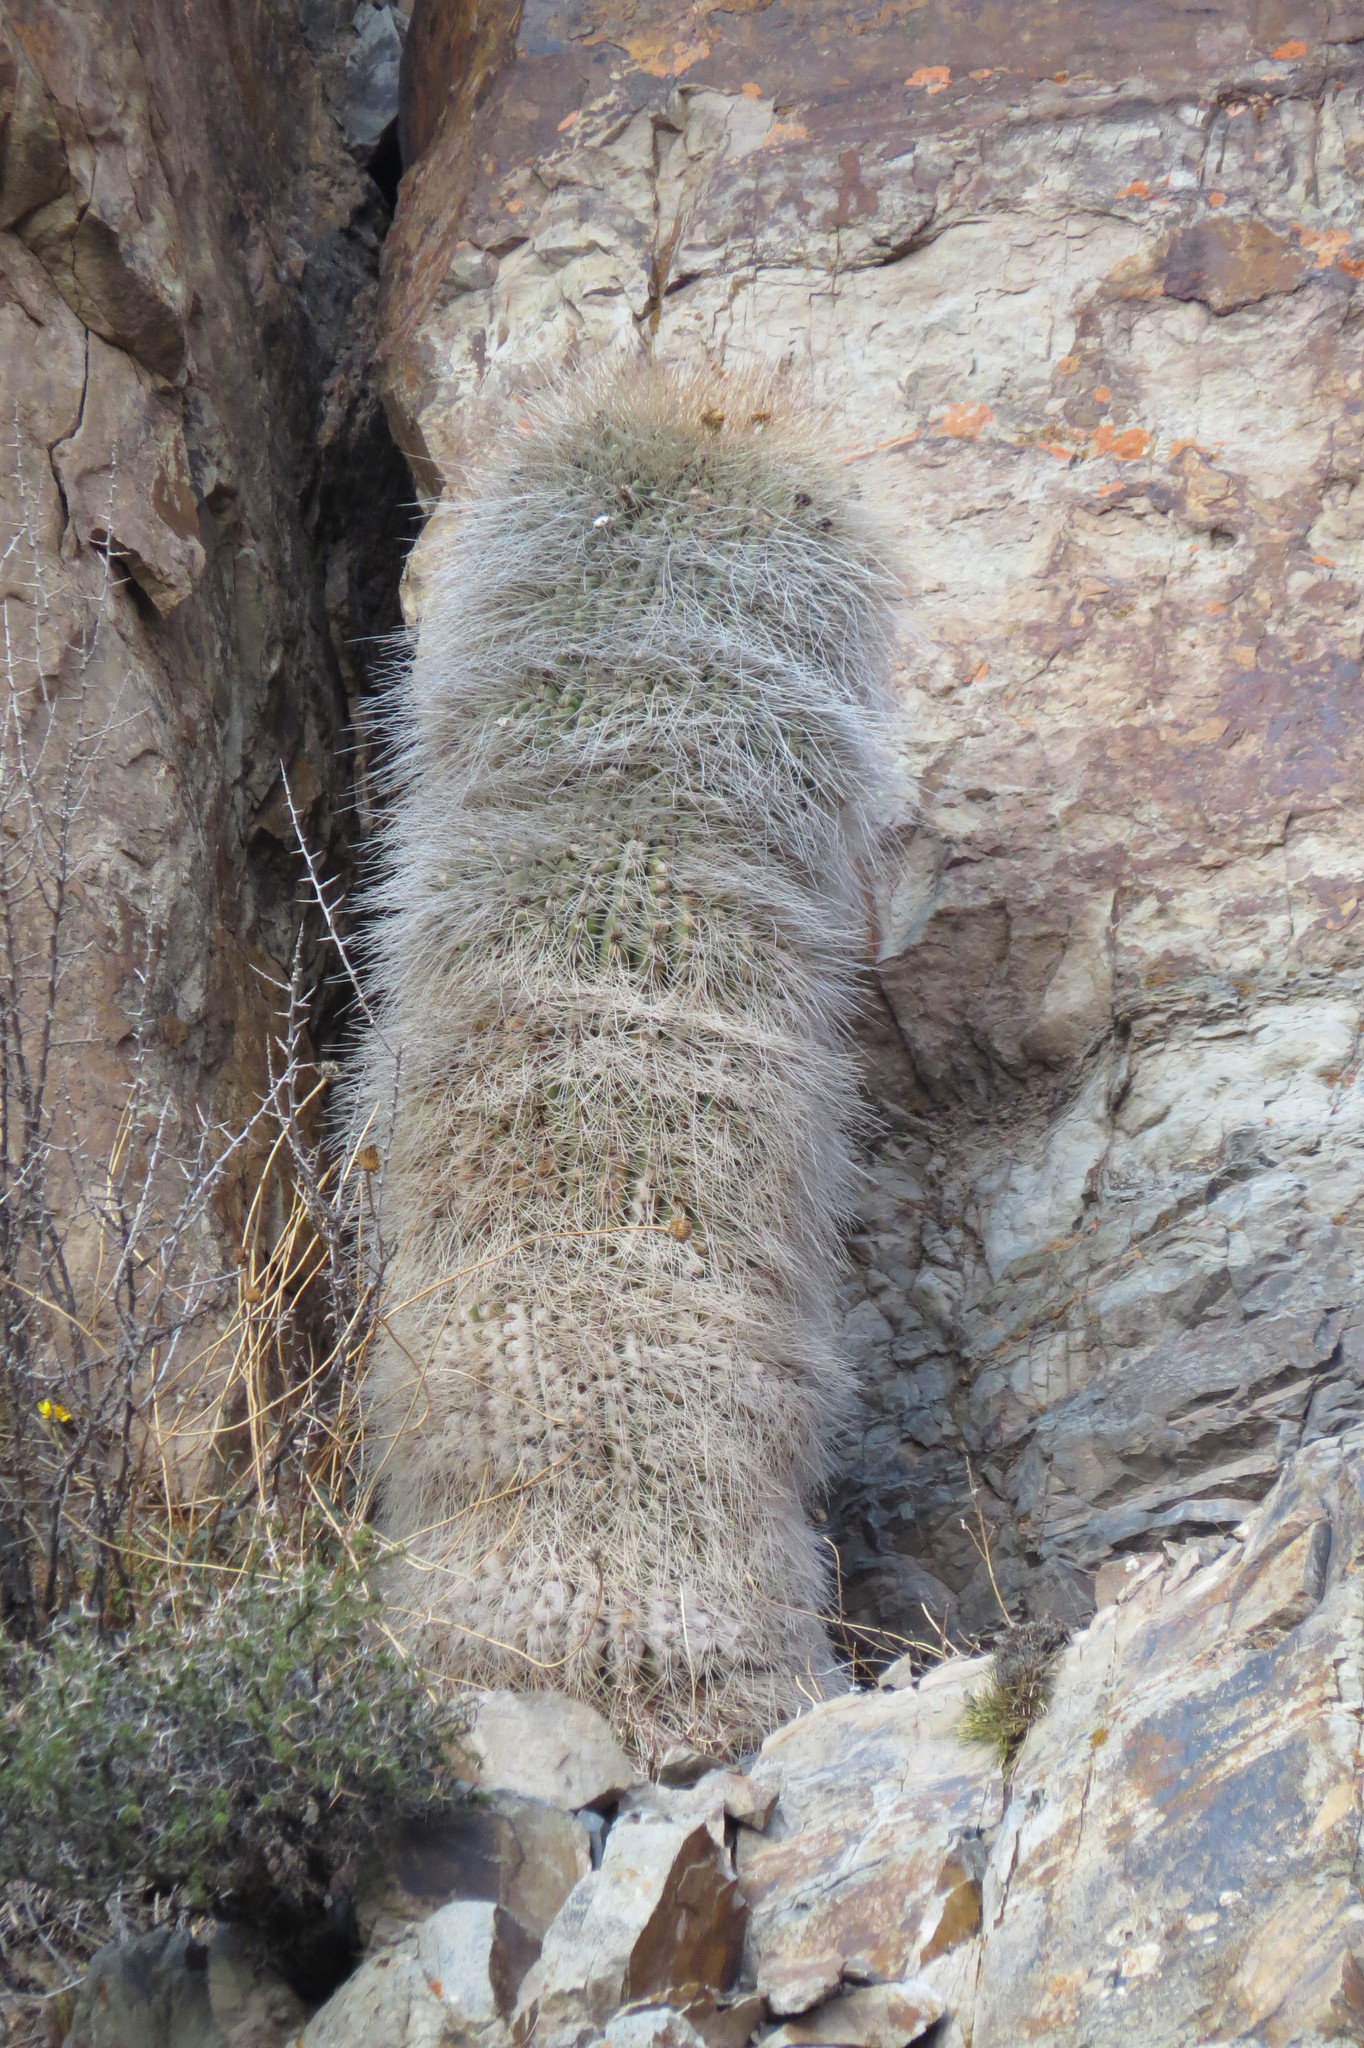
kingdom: Plantae
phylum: Tracheophyta
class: Magnoliopsida
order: Caryophyllales
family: Cactaceae
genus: Soehrensia
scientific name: Soehrensia formosa
